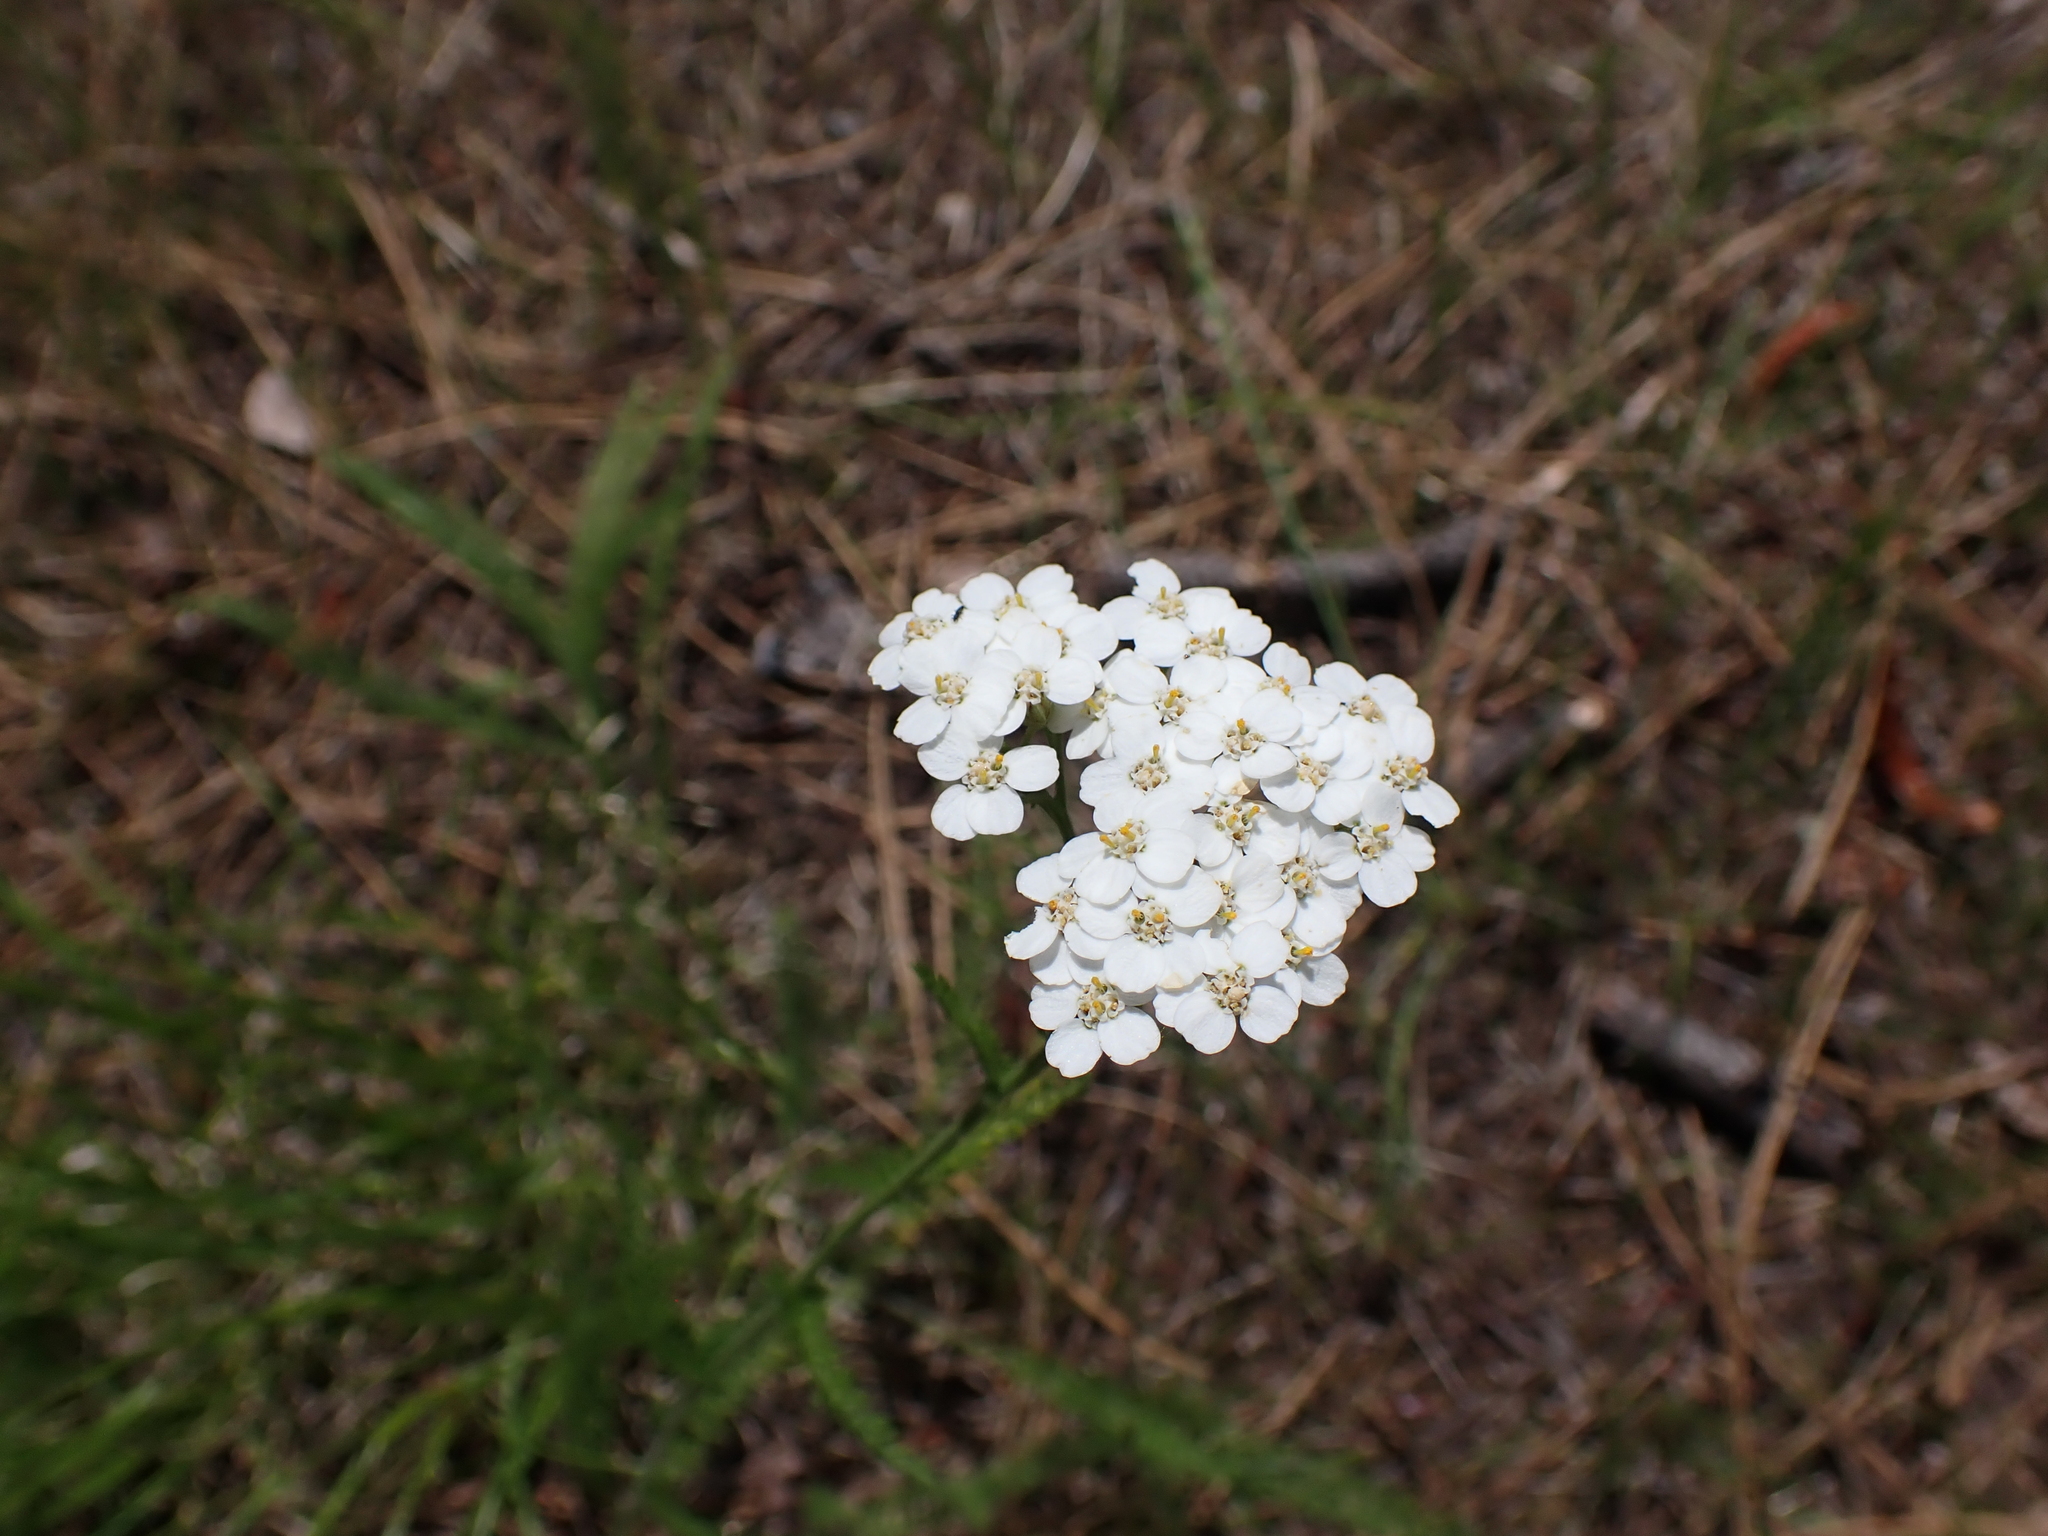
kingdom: Plantae
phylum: Tracheophyta
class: Magnoliopsida
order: Asterales
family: Asteraceae
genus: Achillea
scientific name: Achillea millefolium
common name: Yarrow
